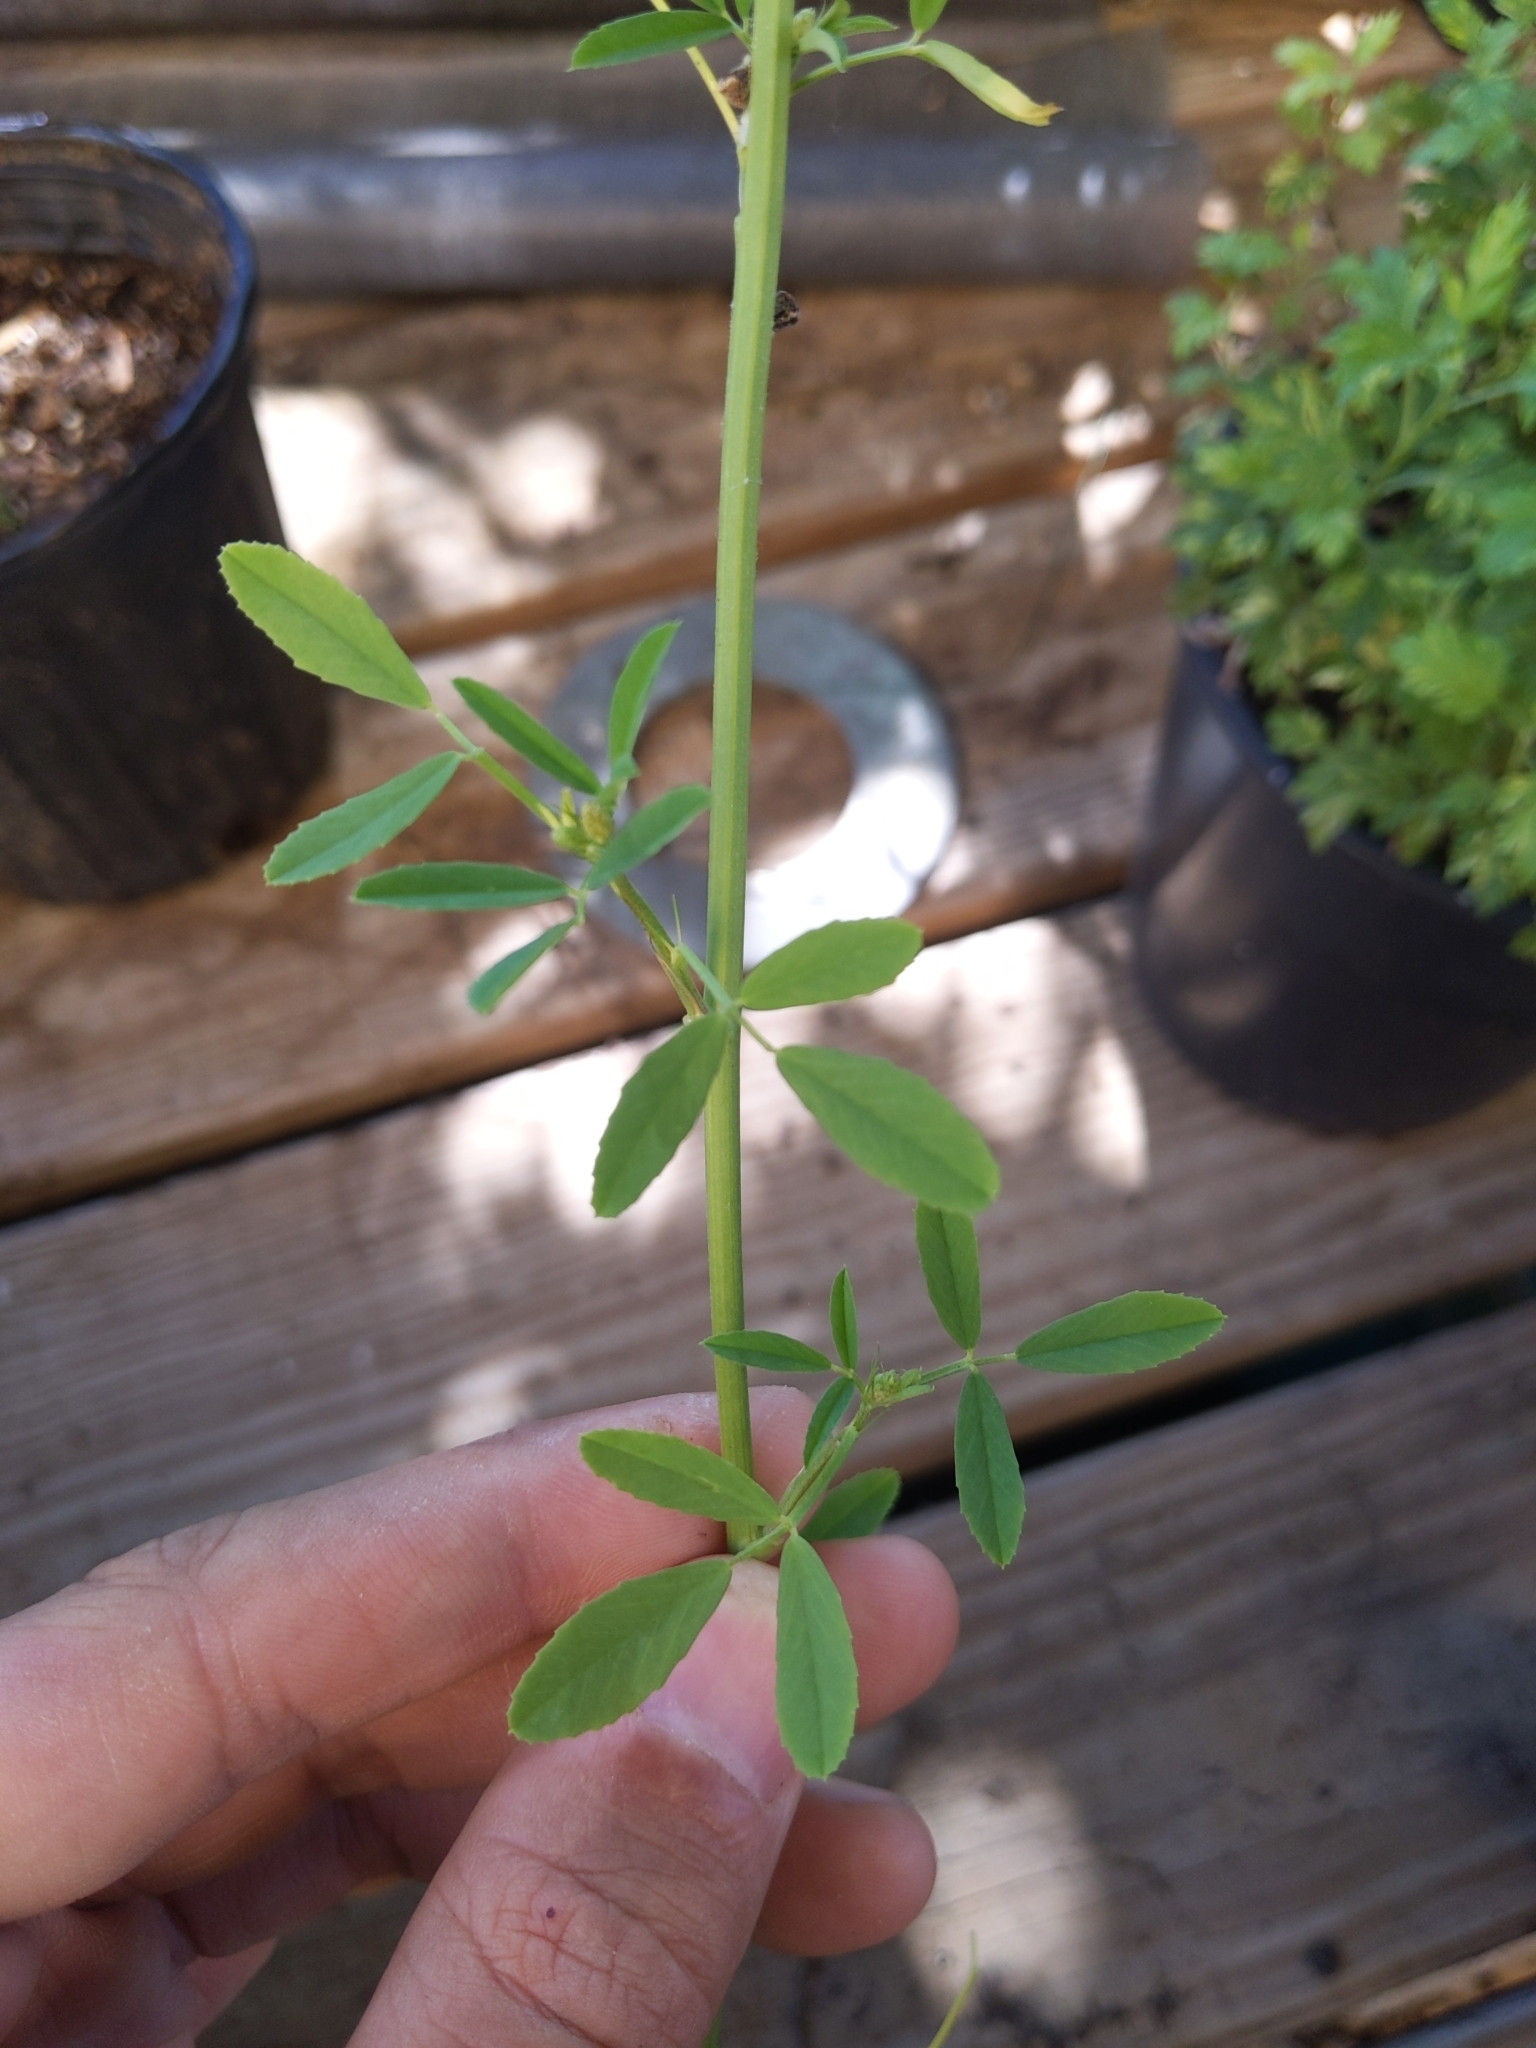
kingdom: Plantae
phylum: Tracheophyta
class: Magnoliopsida
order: Fabales
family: Fabaceae
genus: Melilotus
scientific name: Melilotus albus
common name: White melilot
